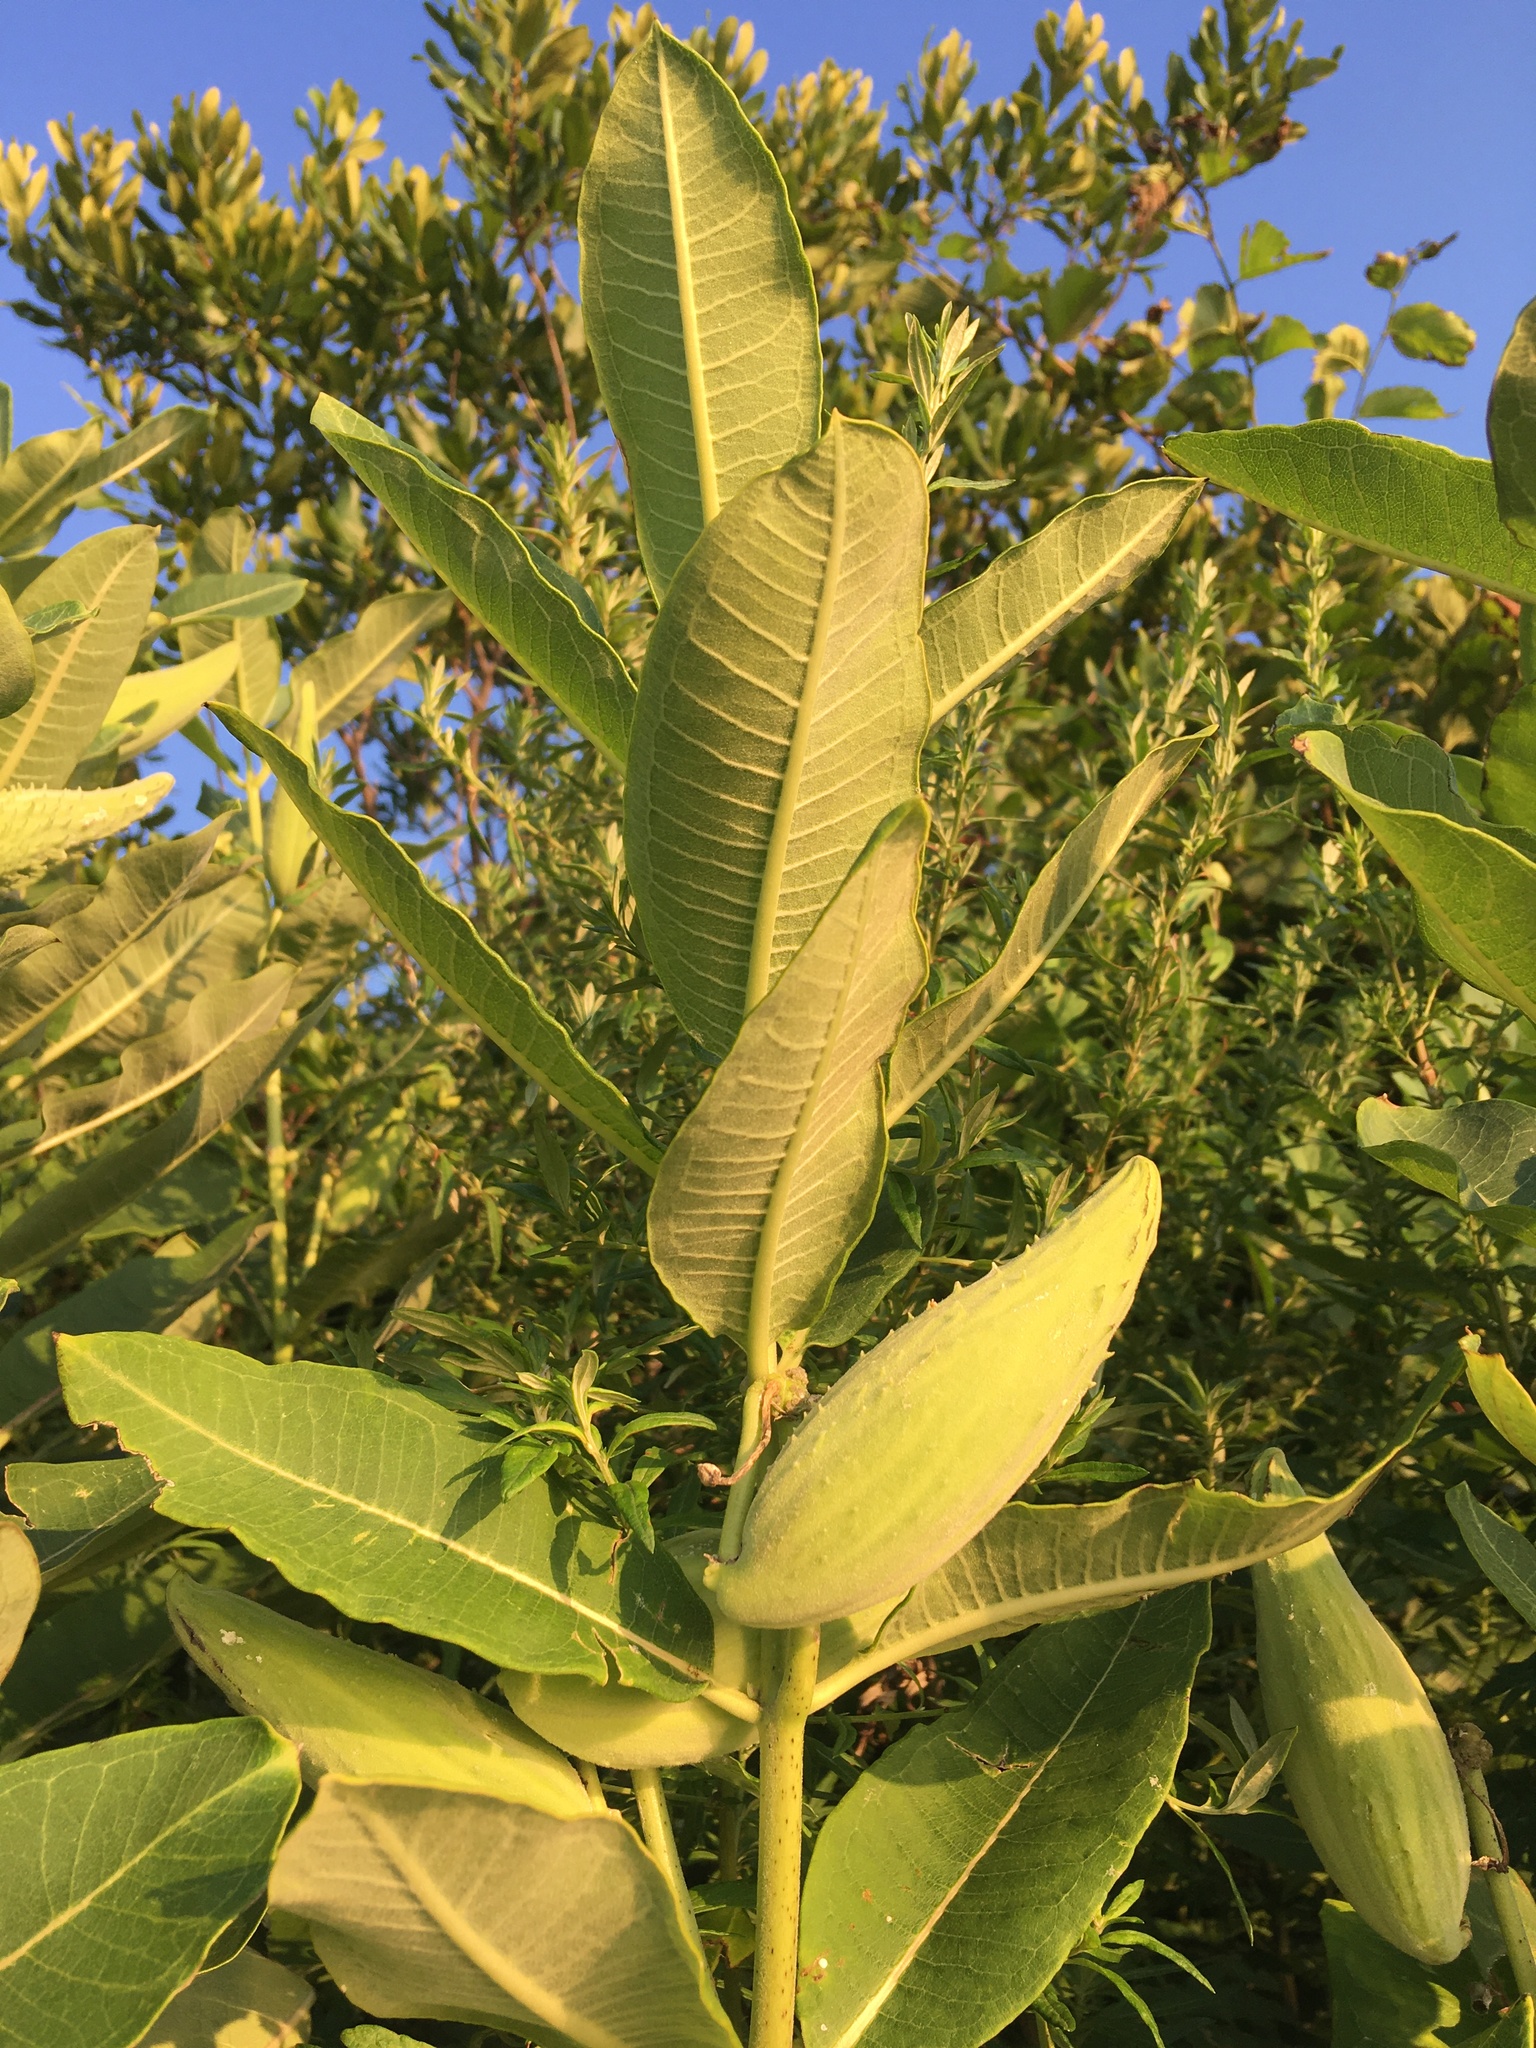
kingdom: Plantae
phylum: Tracheophyta
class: Magnoliopsida
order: Gentianales
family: Apocynaceae
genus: Asclepias
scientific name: Asclepias syriaca
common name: Common milkweed
